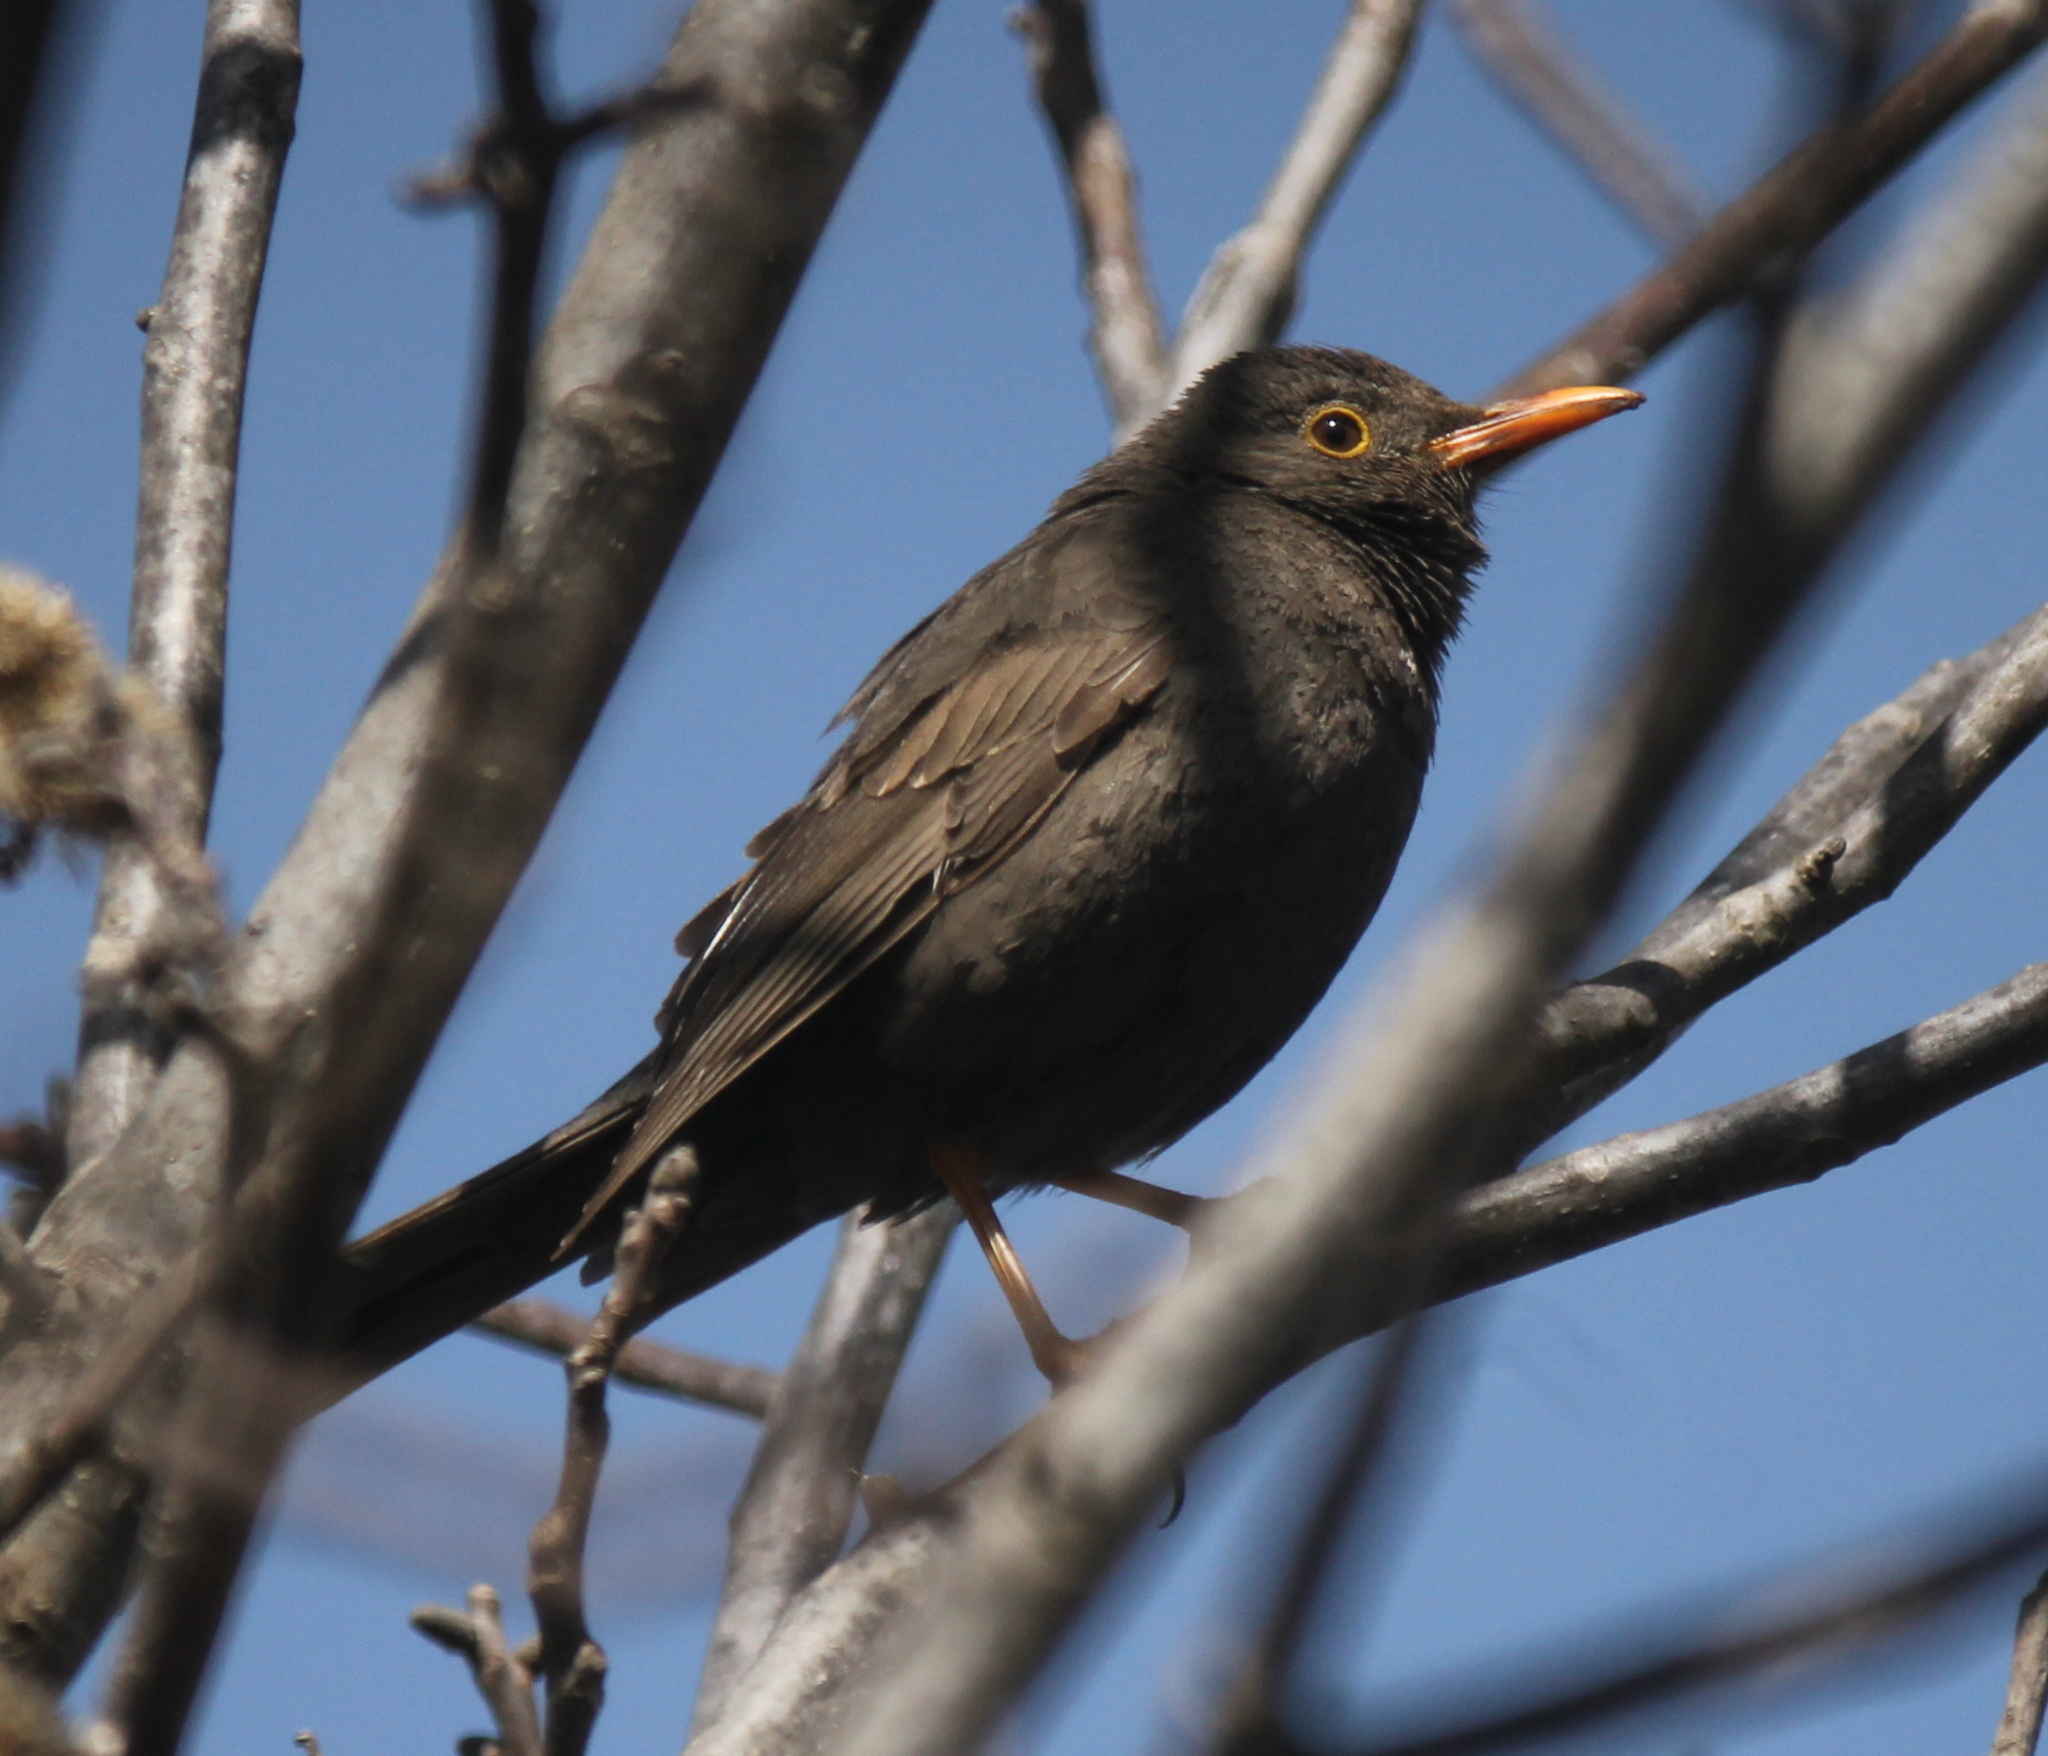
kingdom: Animalia
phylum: Chordata
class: Aves
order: Passeriformes
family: Turdidae
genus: Turdus
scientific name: Turdus chiguanco
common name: Chiguanco thrush
